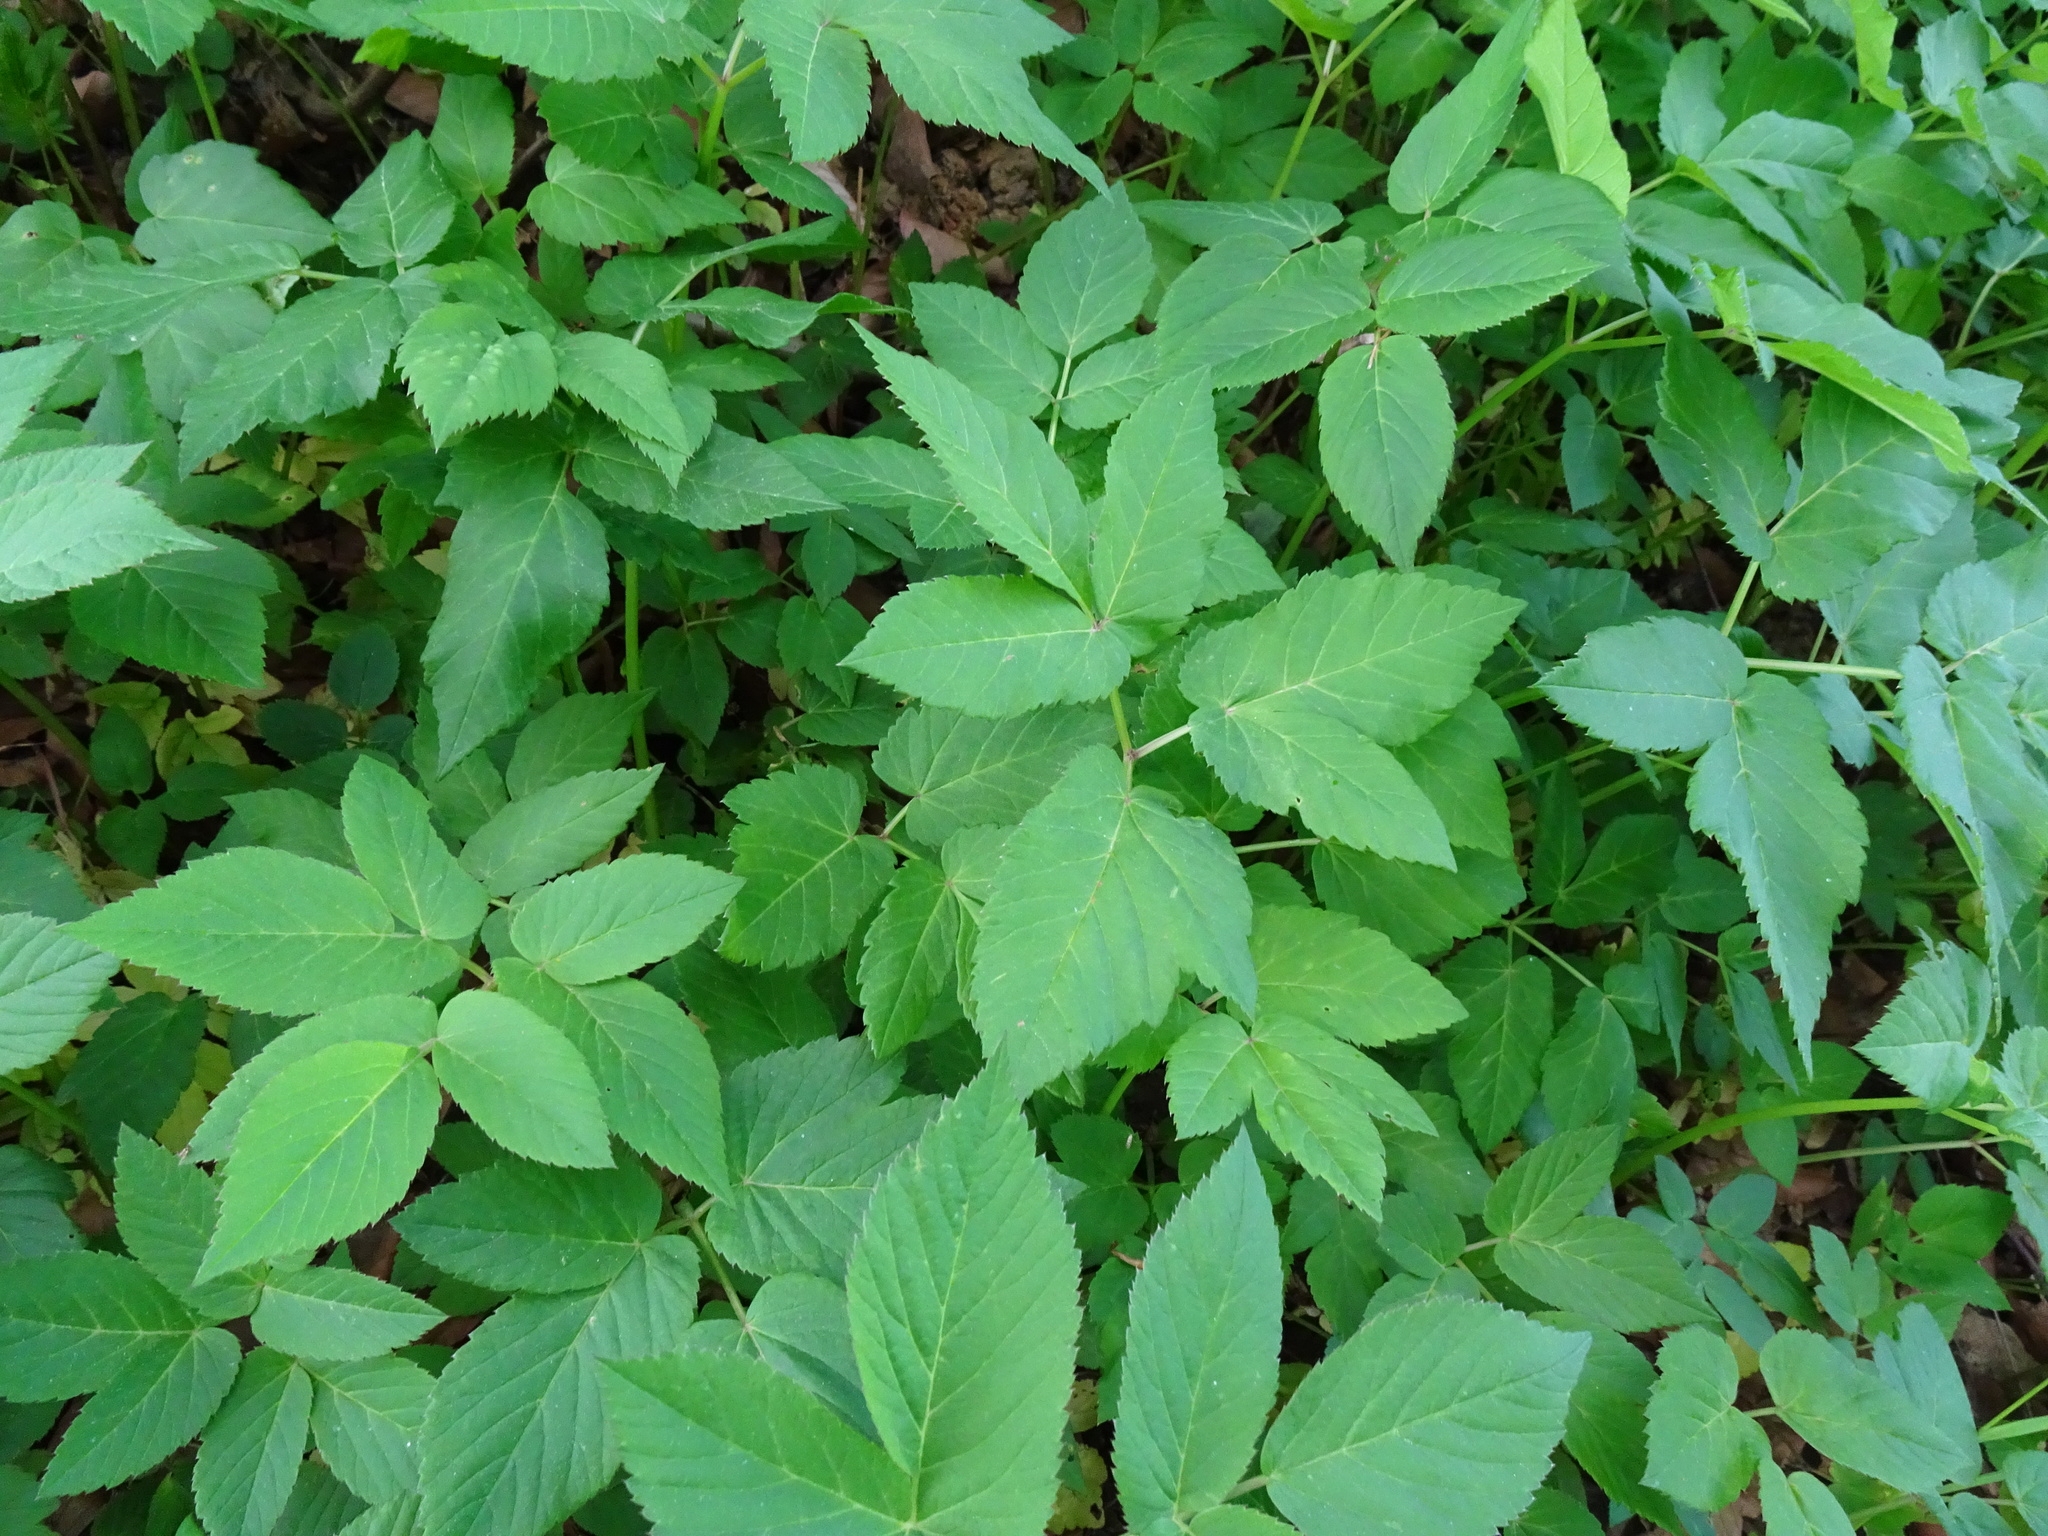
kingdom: Plantae
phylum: Tracheophyta
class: Magnoliopsida
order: Apiales
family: Apiaceae
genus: Aegopodium
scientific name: Aegopodium podagraria
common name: Ground-elder
